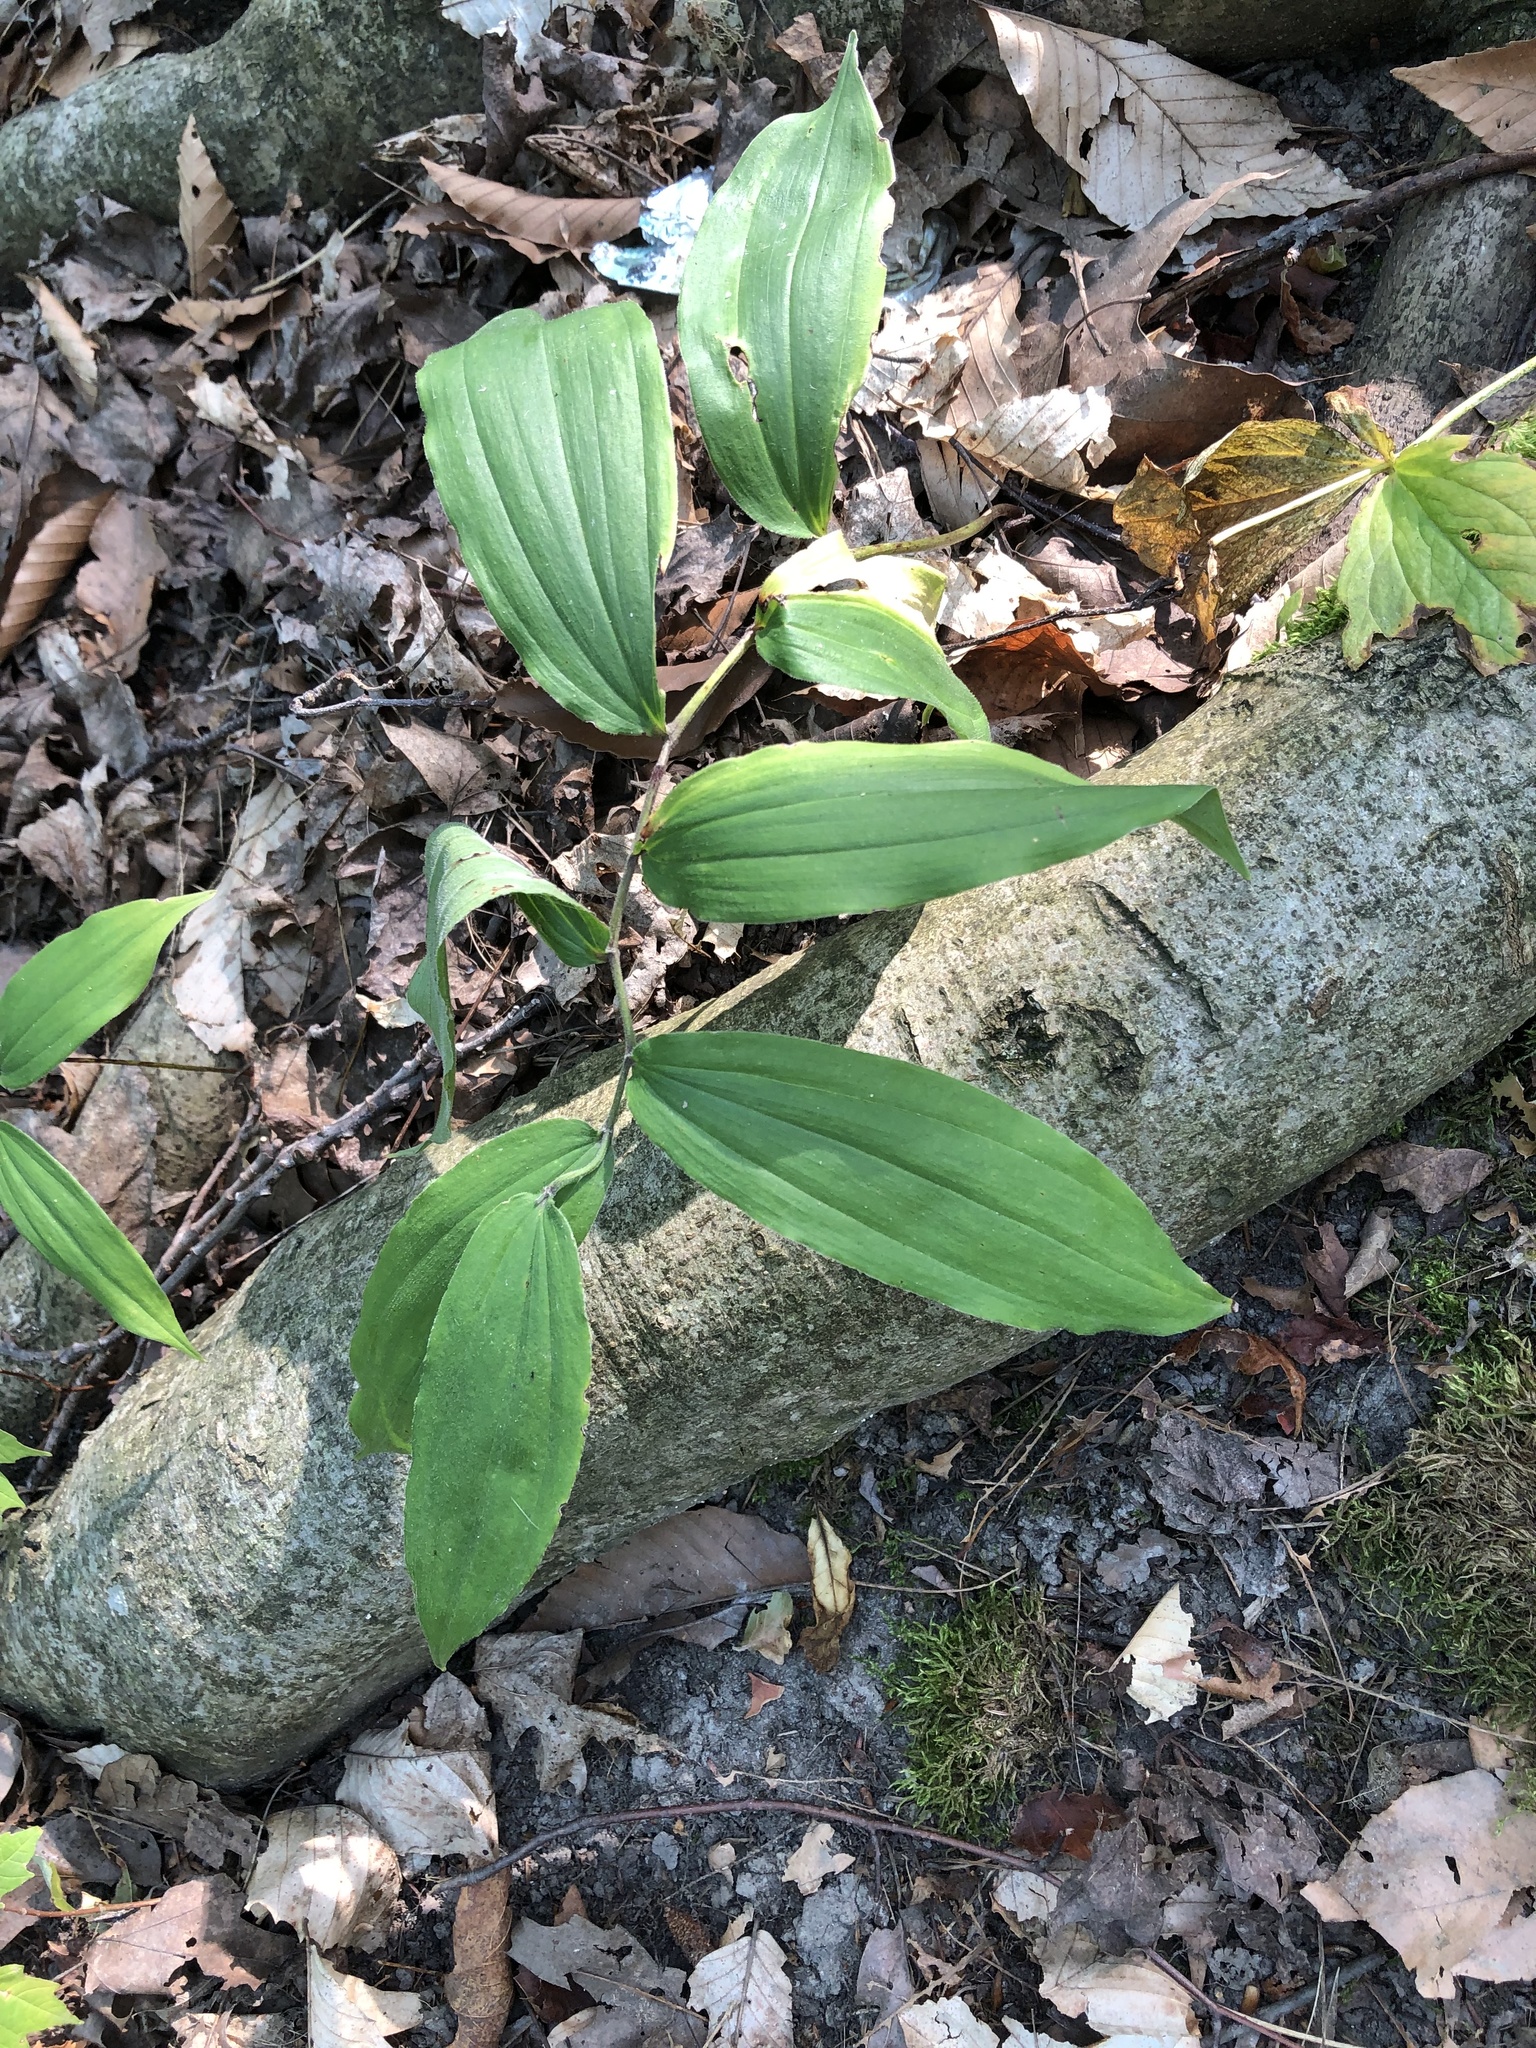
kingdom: Plantae
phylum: Tracheophyta
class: Liliopsida
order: Asparagales
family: Asparagaceae
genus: Maianthemum
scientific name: Maianthemum racemosum
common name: False spikenard
